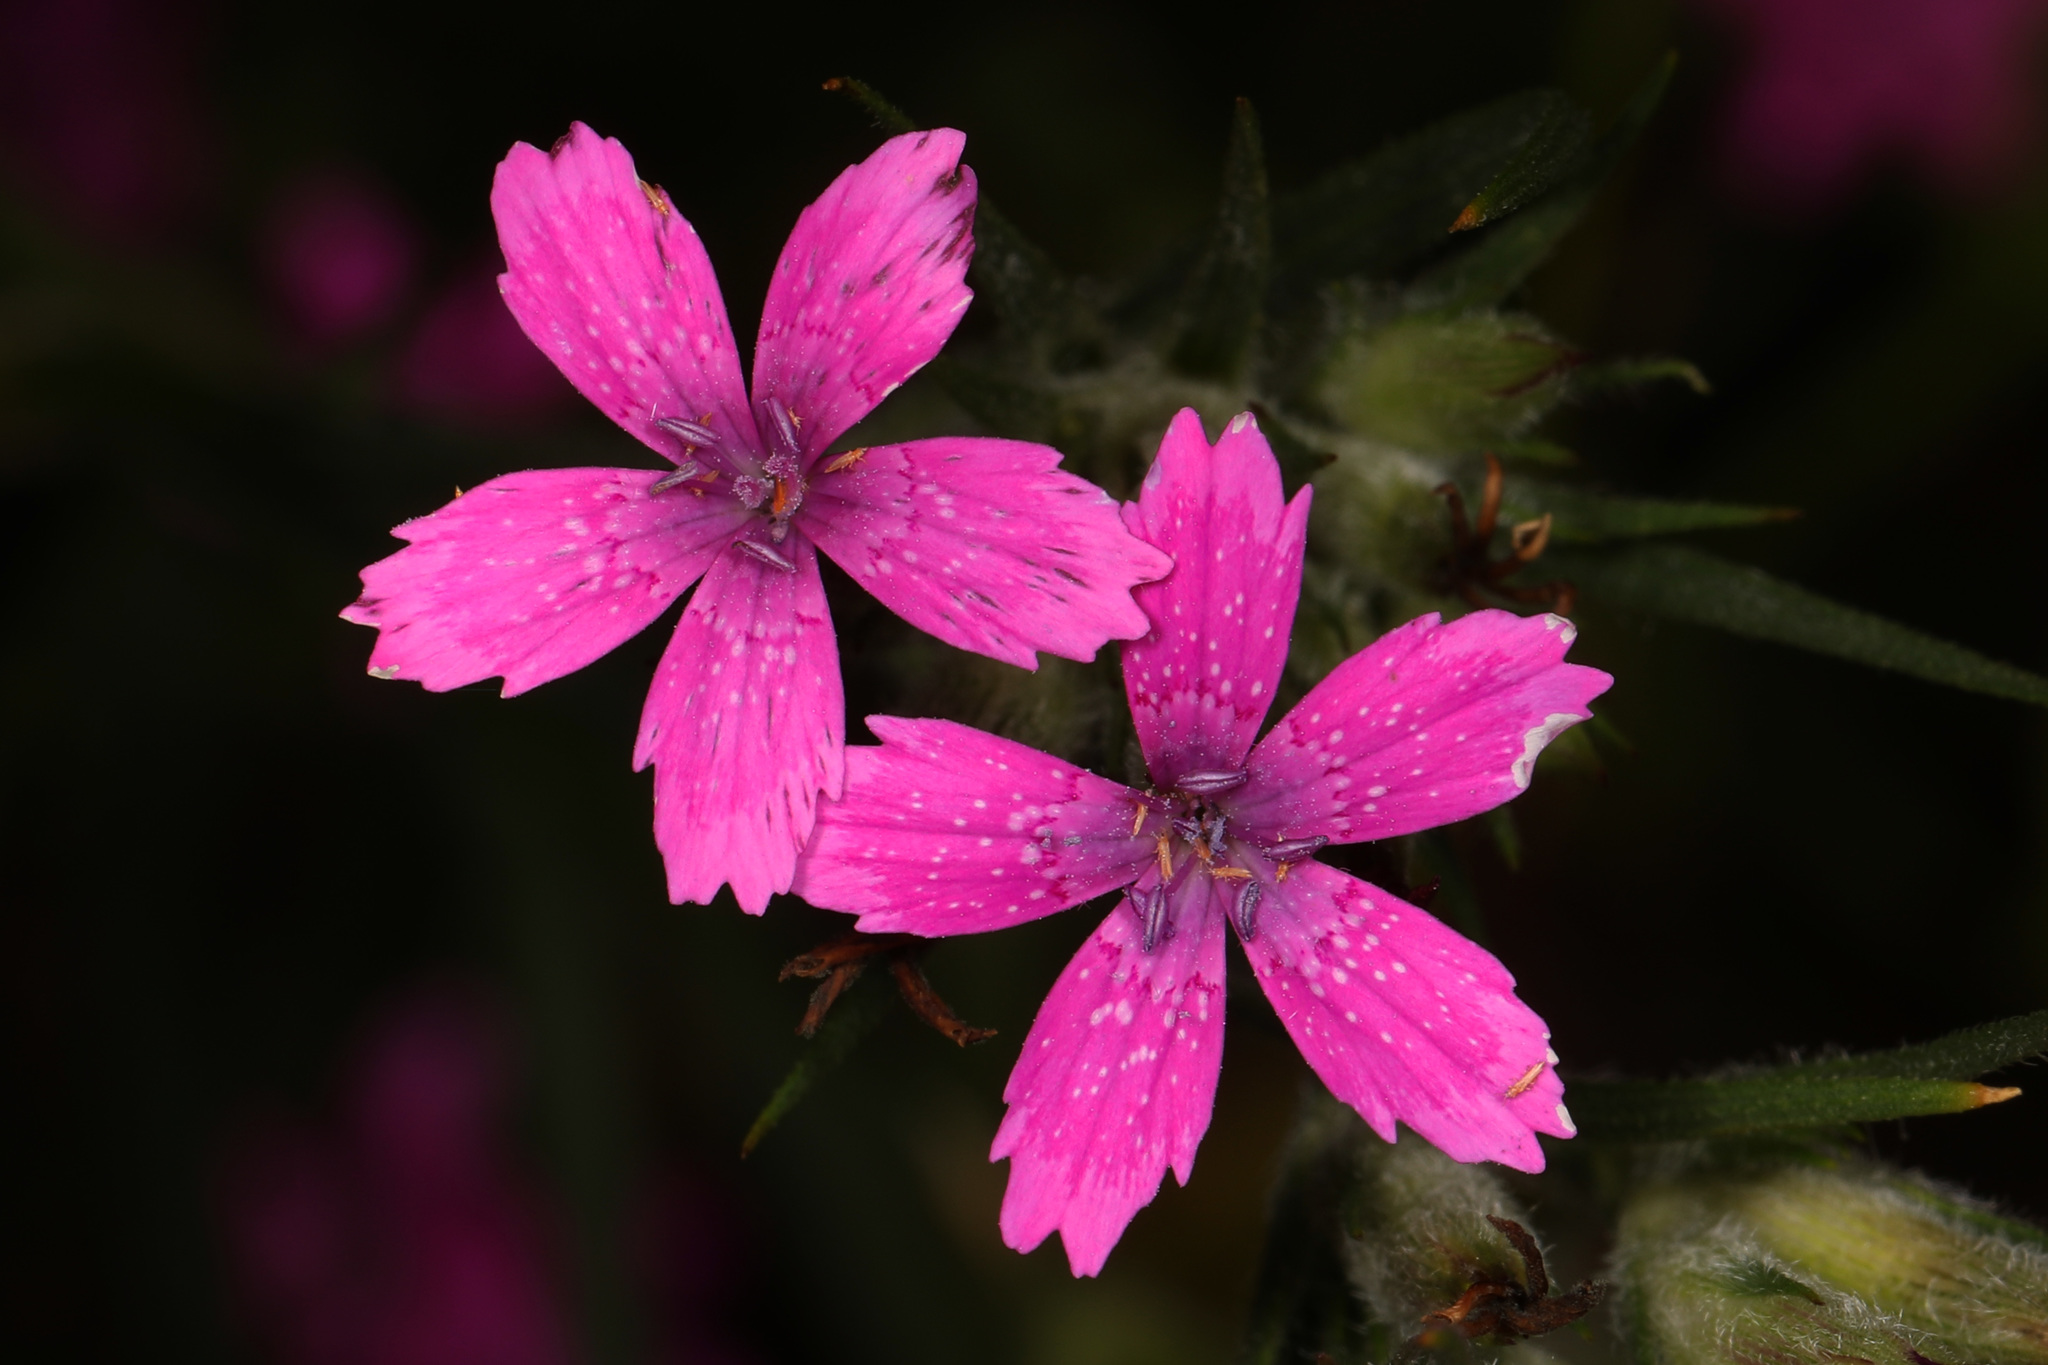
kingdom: Plantae
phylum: Tracheophyta
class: Magnoliopsida
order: Caryophyllales
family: Caryophyllaceae
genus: Dianthus
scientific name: Dianthus armeria
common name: Deptford pink
